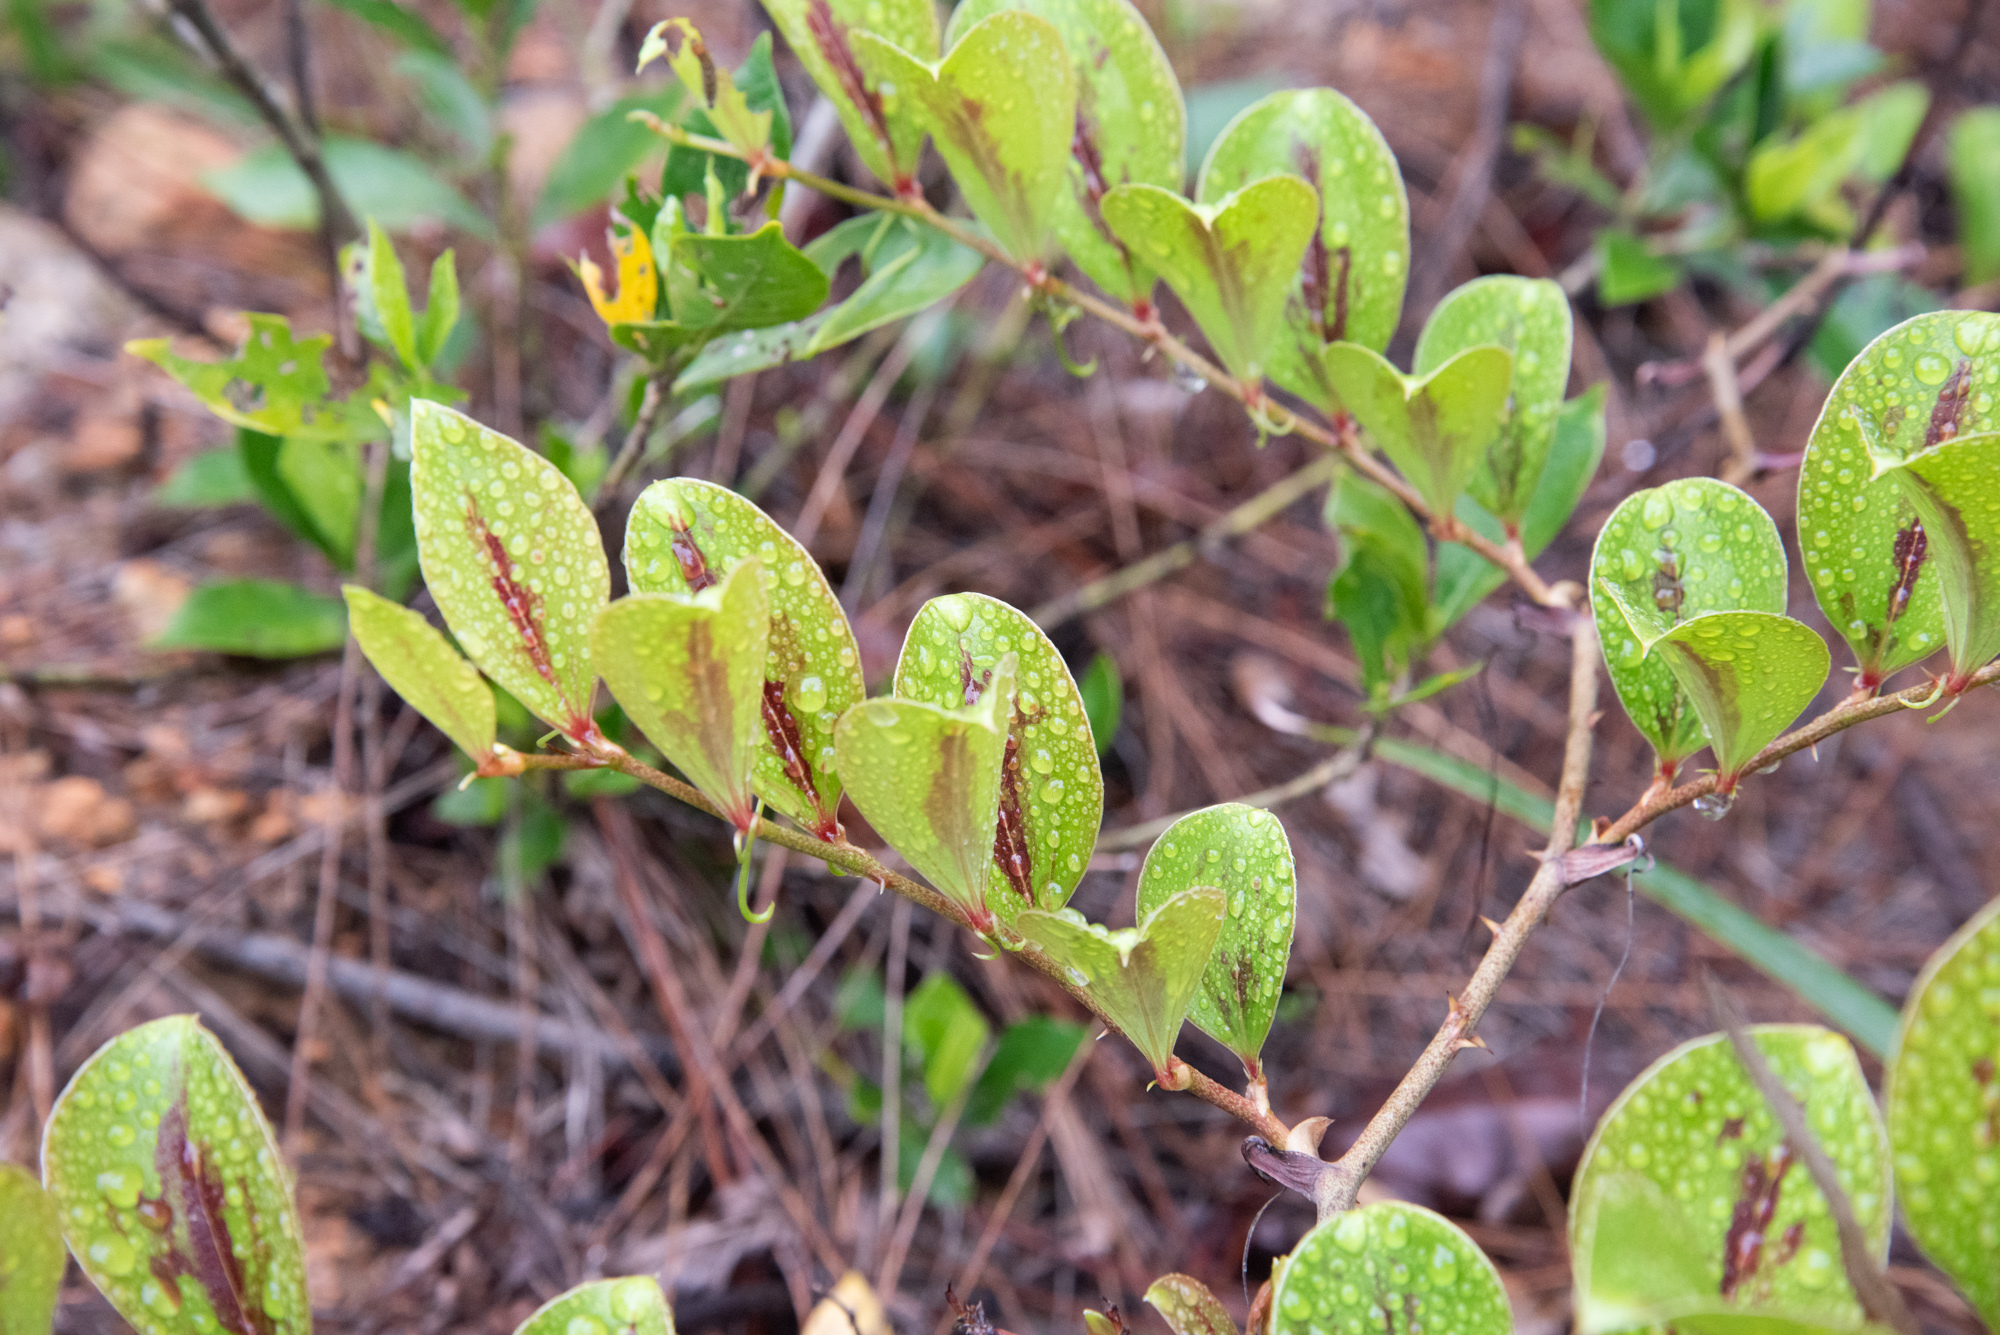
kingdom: Plantae
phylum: Tracheophyta
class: Liliopsida
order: Liliales
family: Smilacaceae
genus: Smilax
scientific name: Smilax china
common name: Chinaroot
